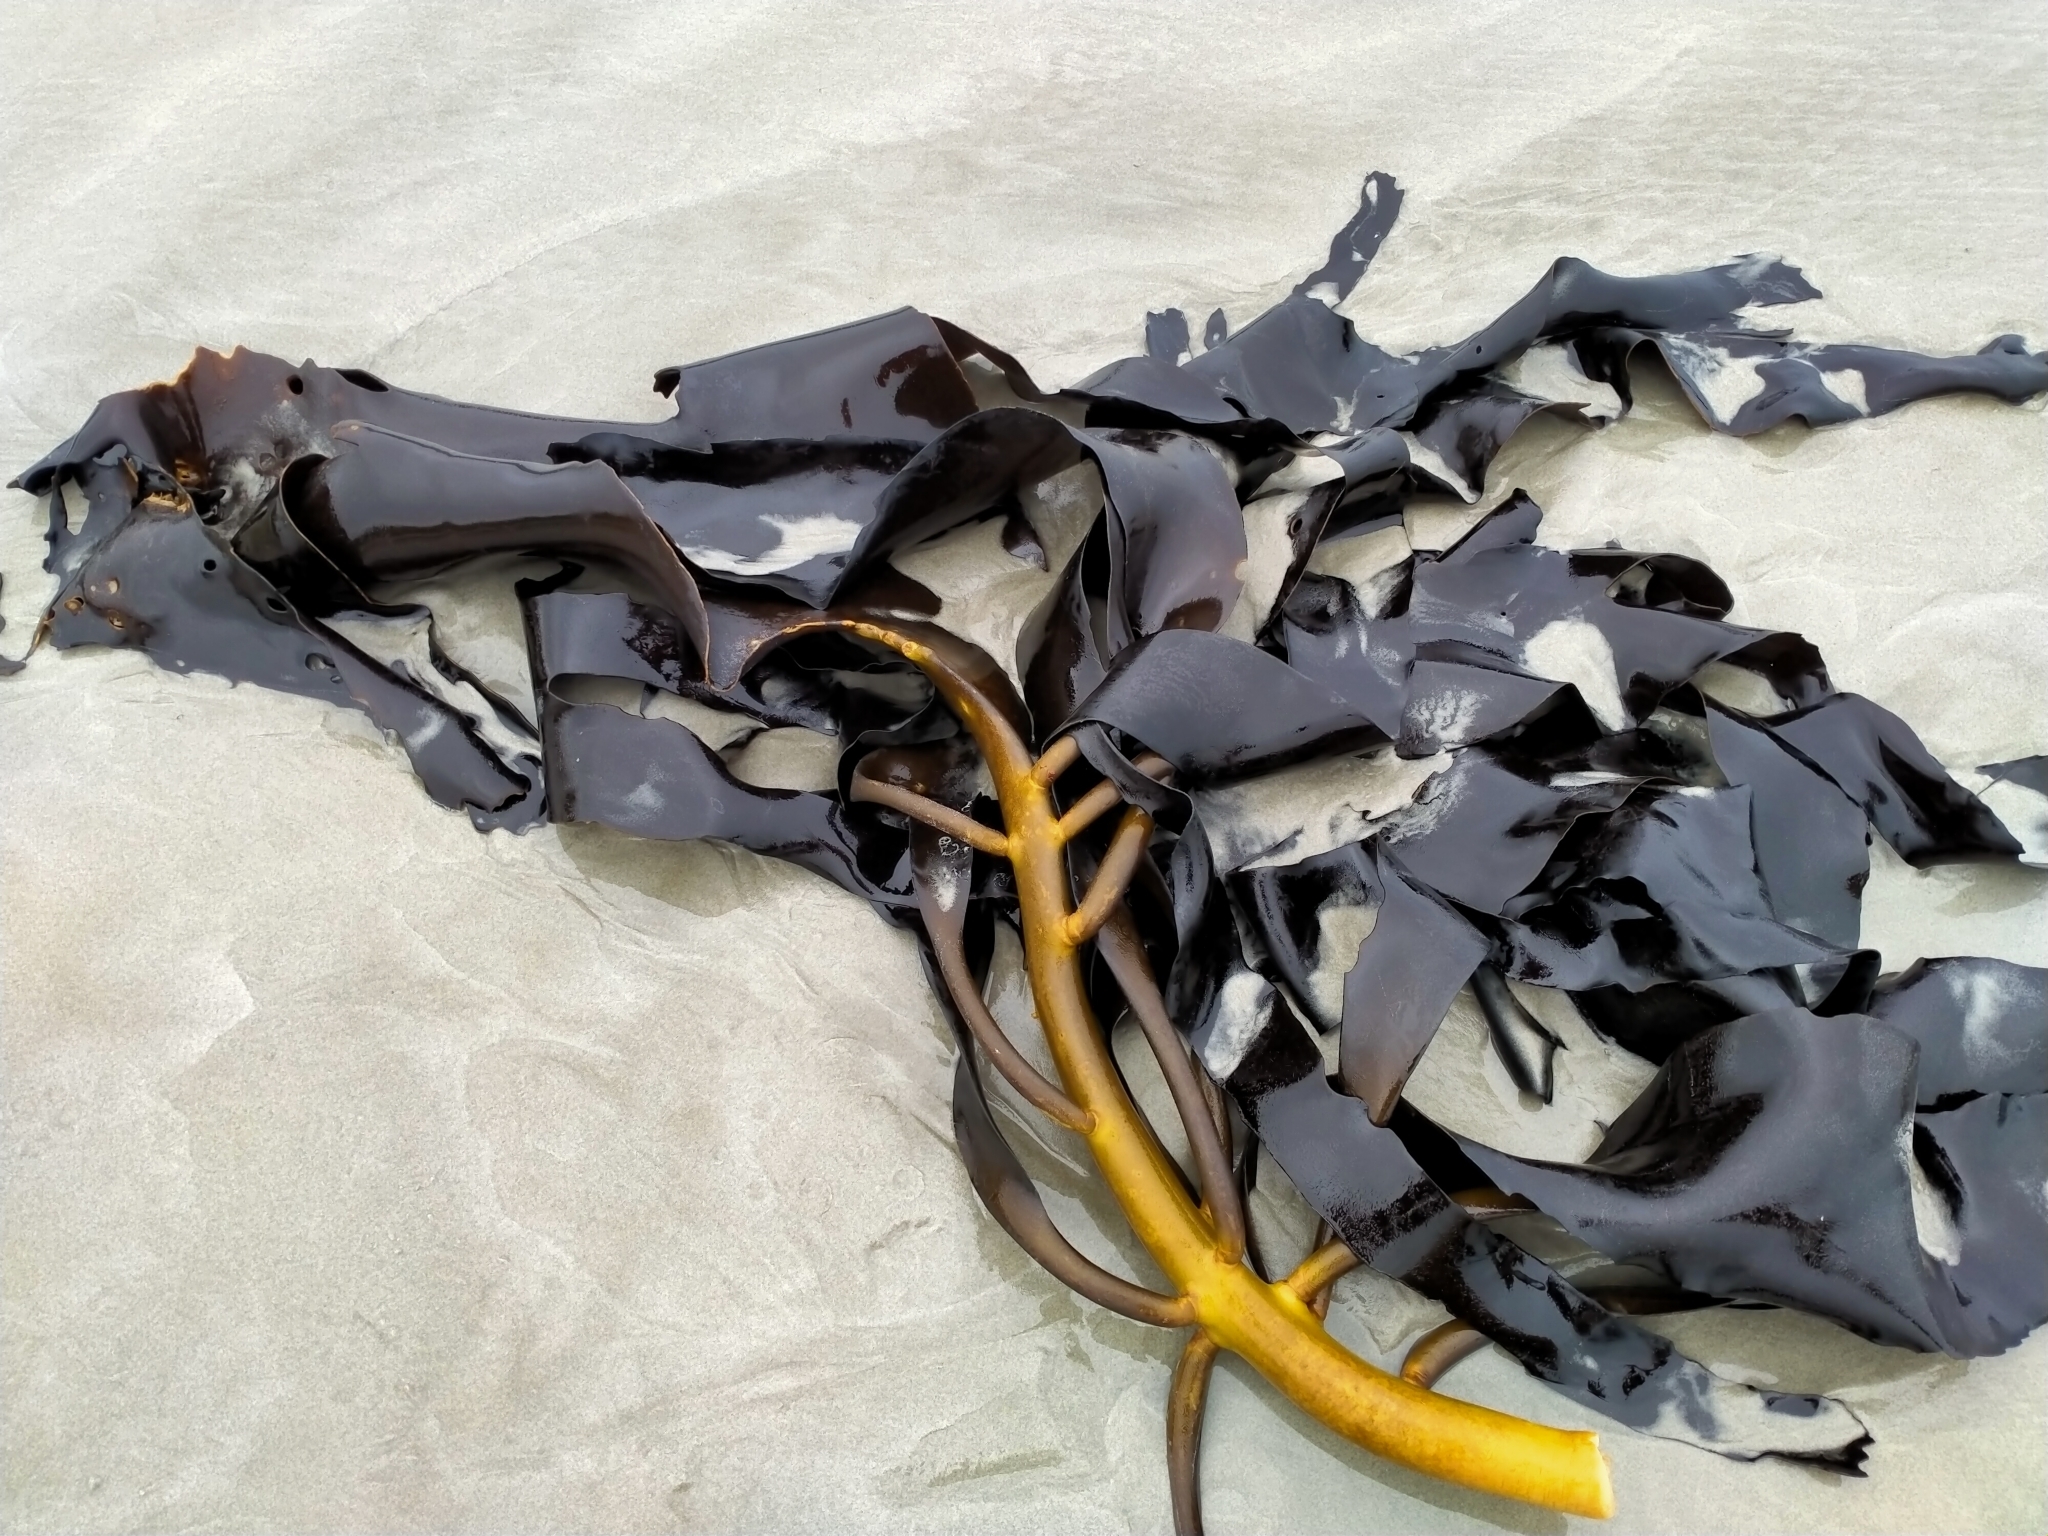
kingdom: Chromista
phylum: Ochrophyta
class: Phaeophyceae
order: Fucales
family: Durvillaeaceae
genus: Durvillaea
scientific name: Durvillaea willana
